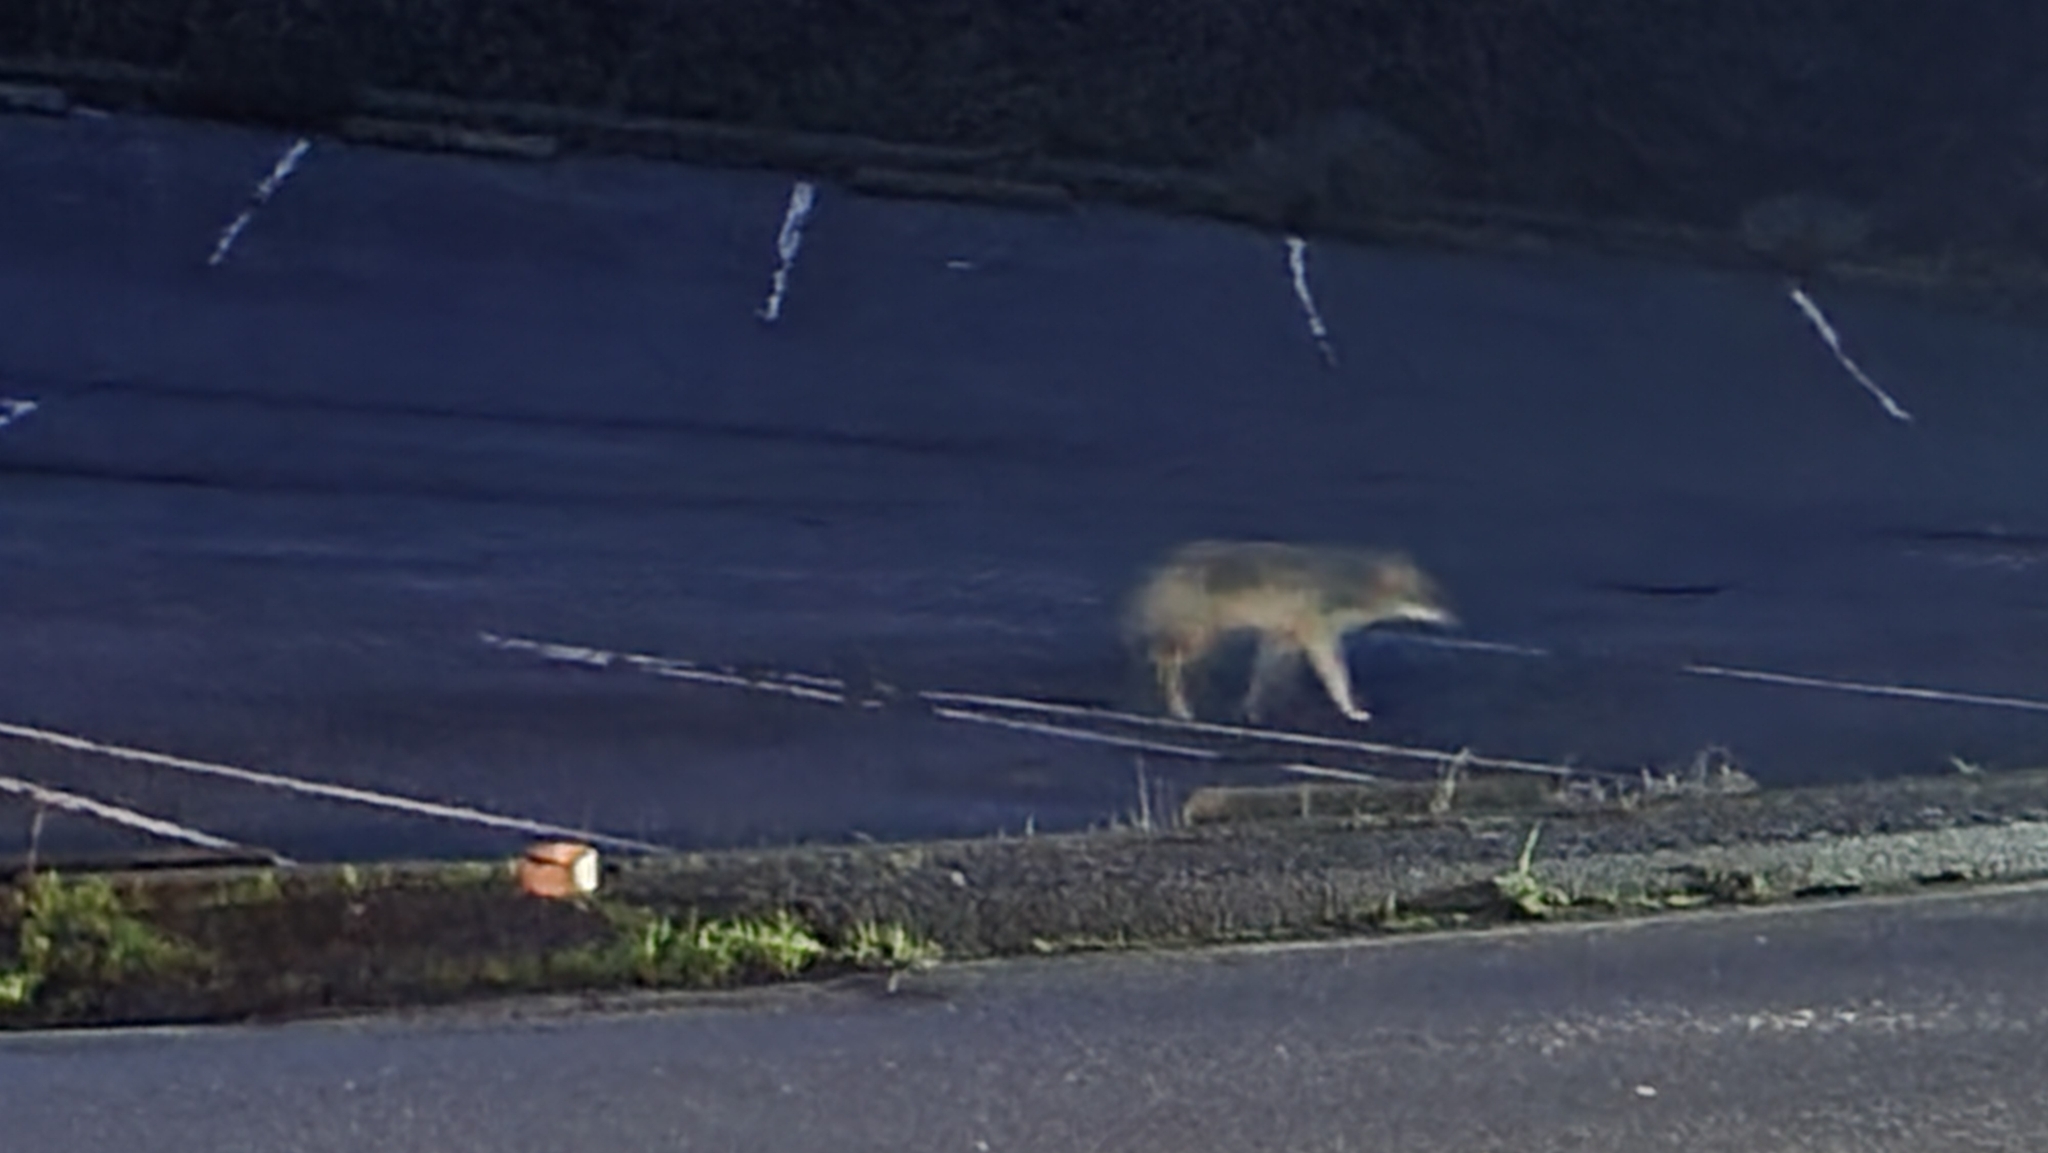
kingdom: Animalia
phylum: Chordata
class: Mammalia
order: Carnivora
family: Canidae
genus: Canis
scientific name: Canis latrans
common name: Coyote
